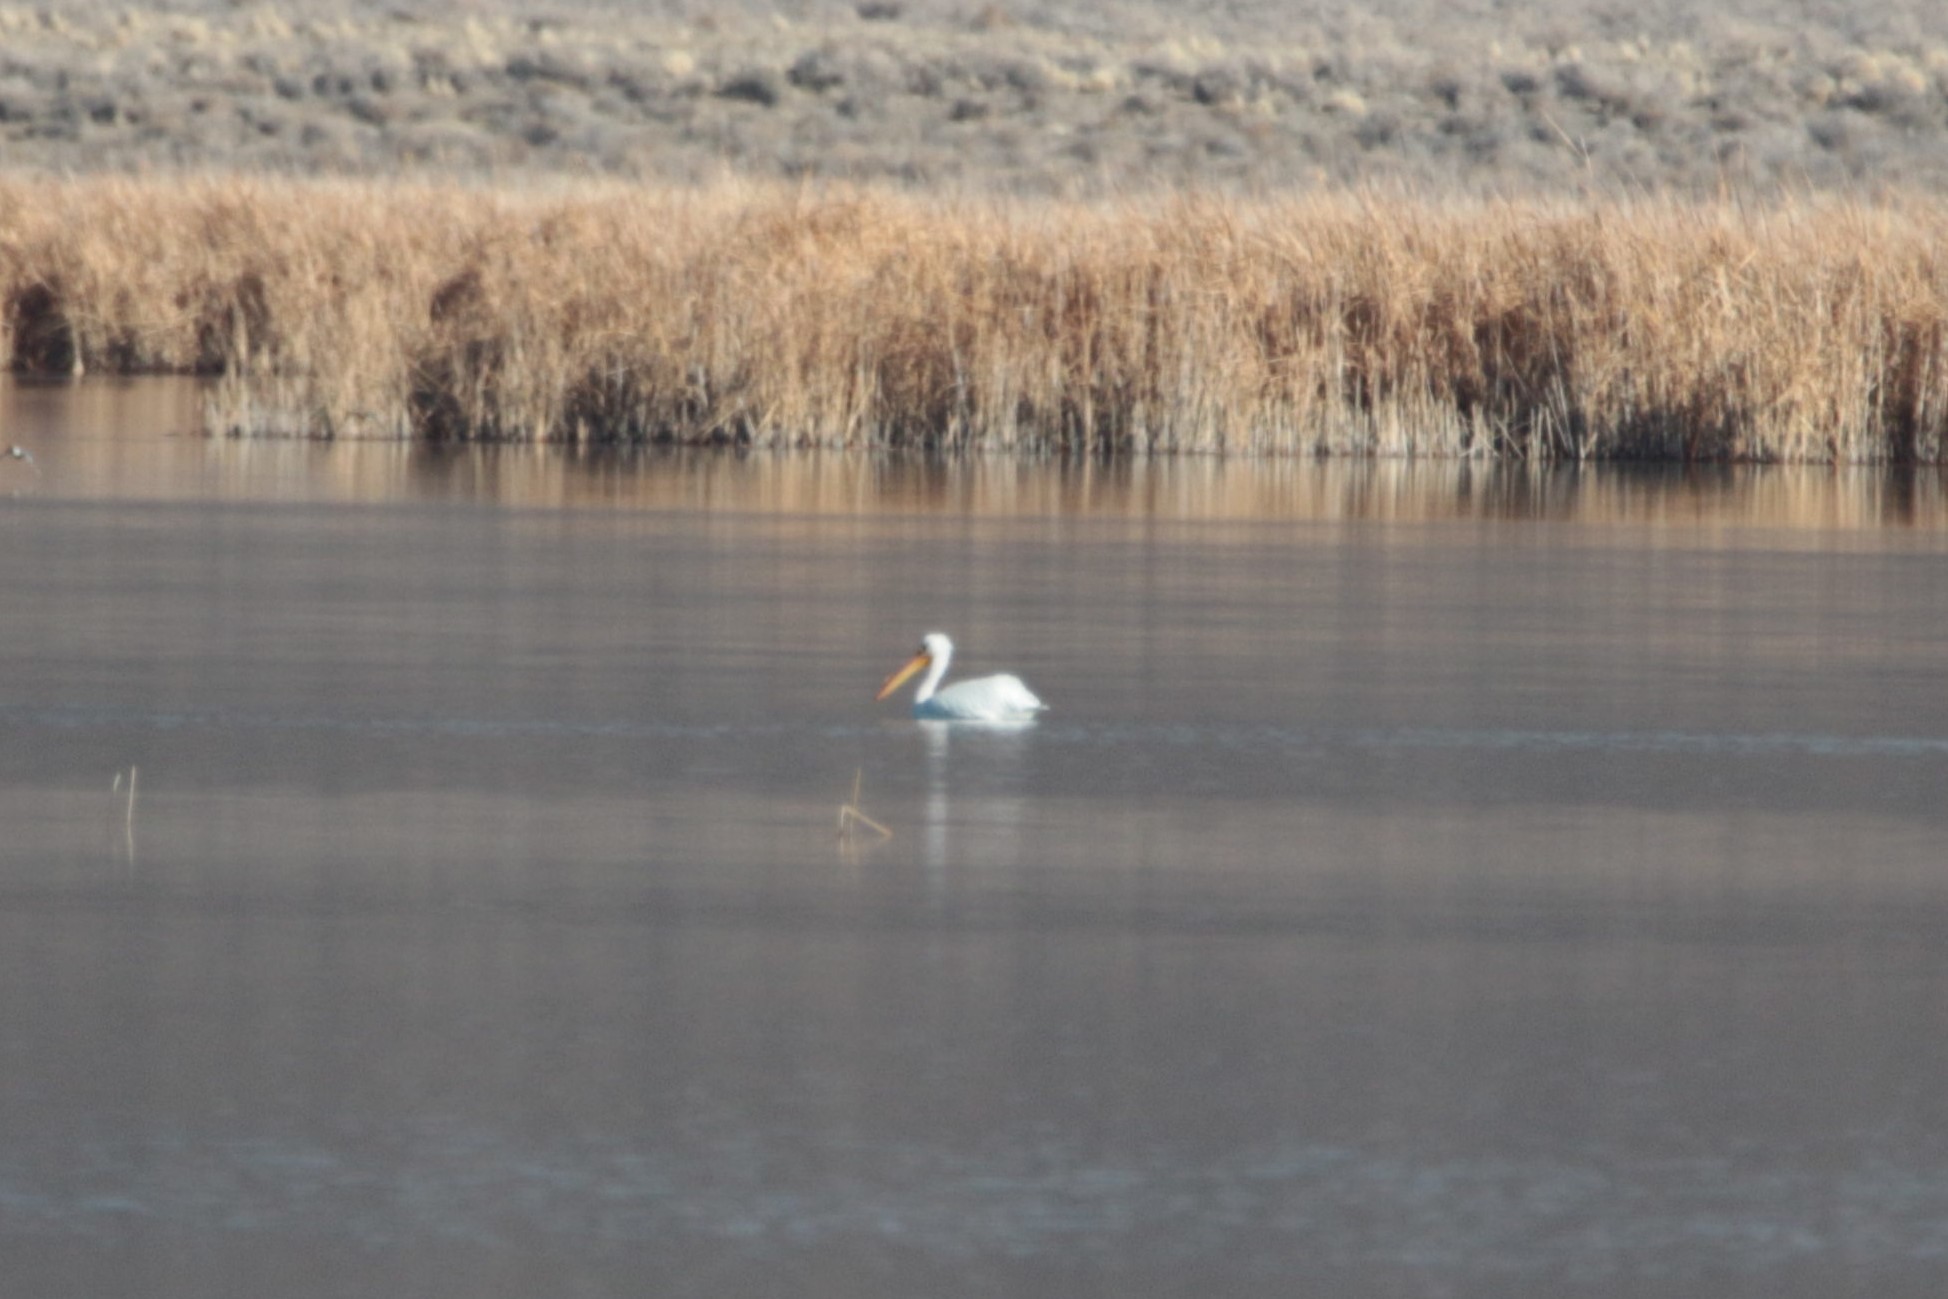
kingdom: Animalia
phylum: Chordata
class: Aves
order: Pelecaniformes
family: Pelecanidae
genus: Pelecanus
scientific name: Pelecanus erythrorhynchos
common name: American white pelican
